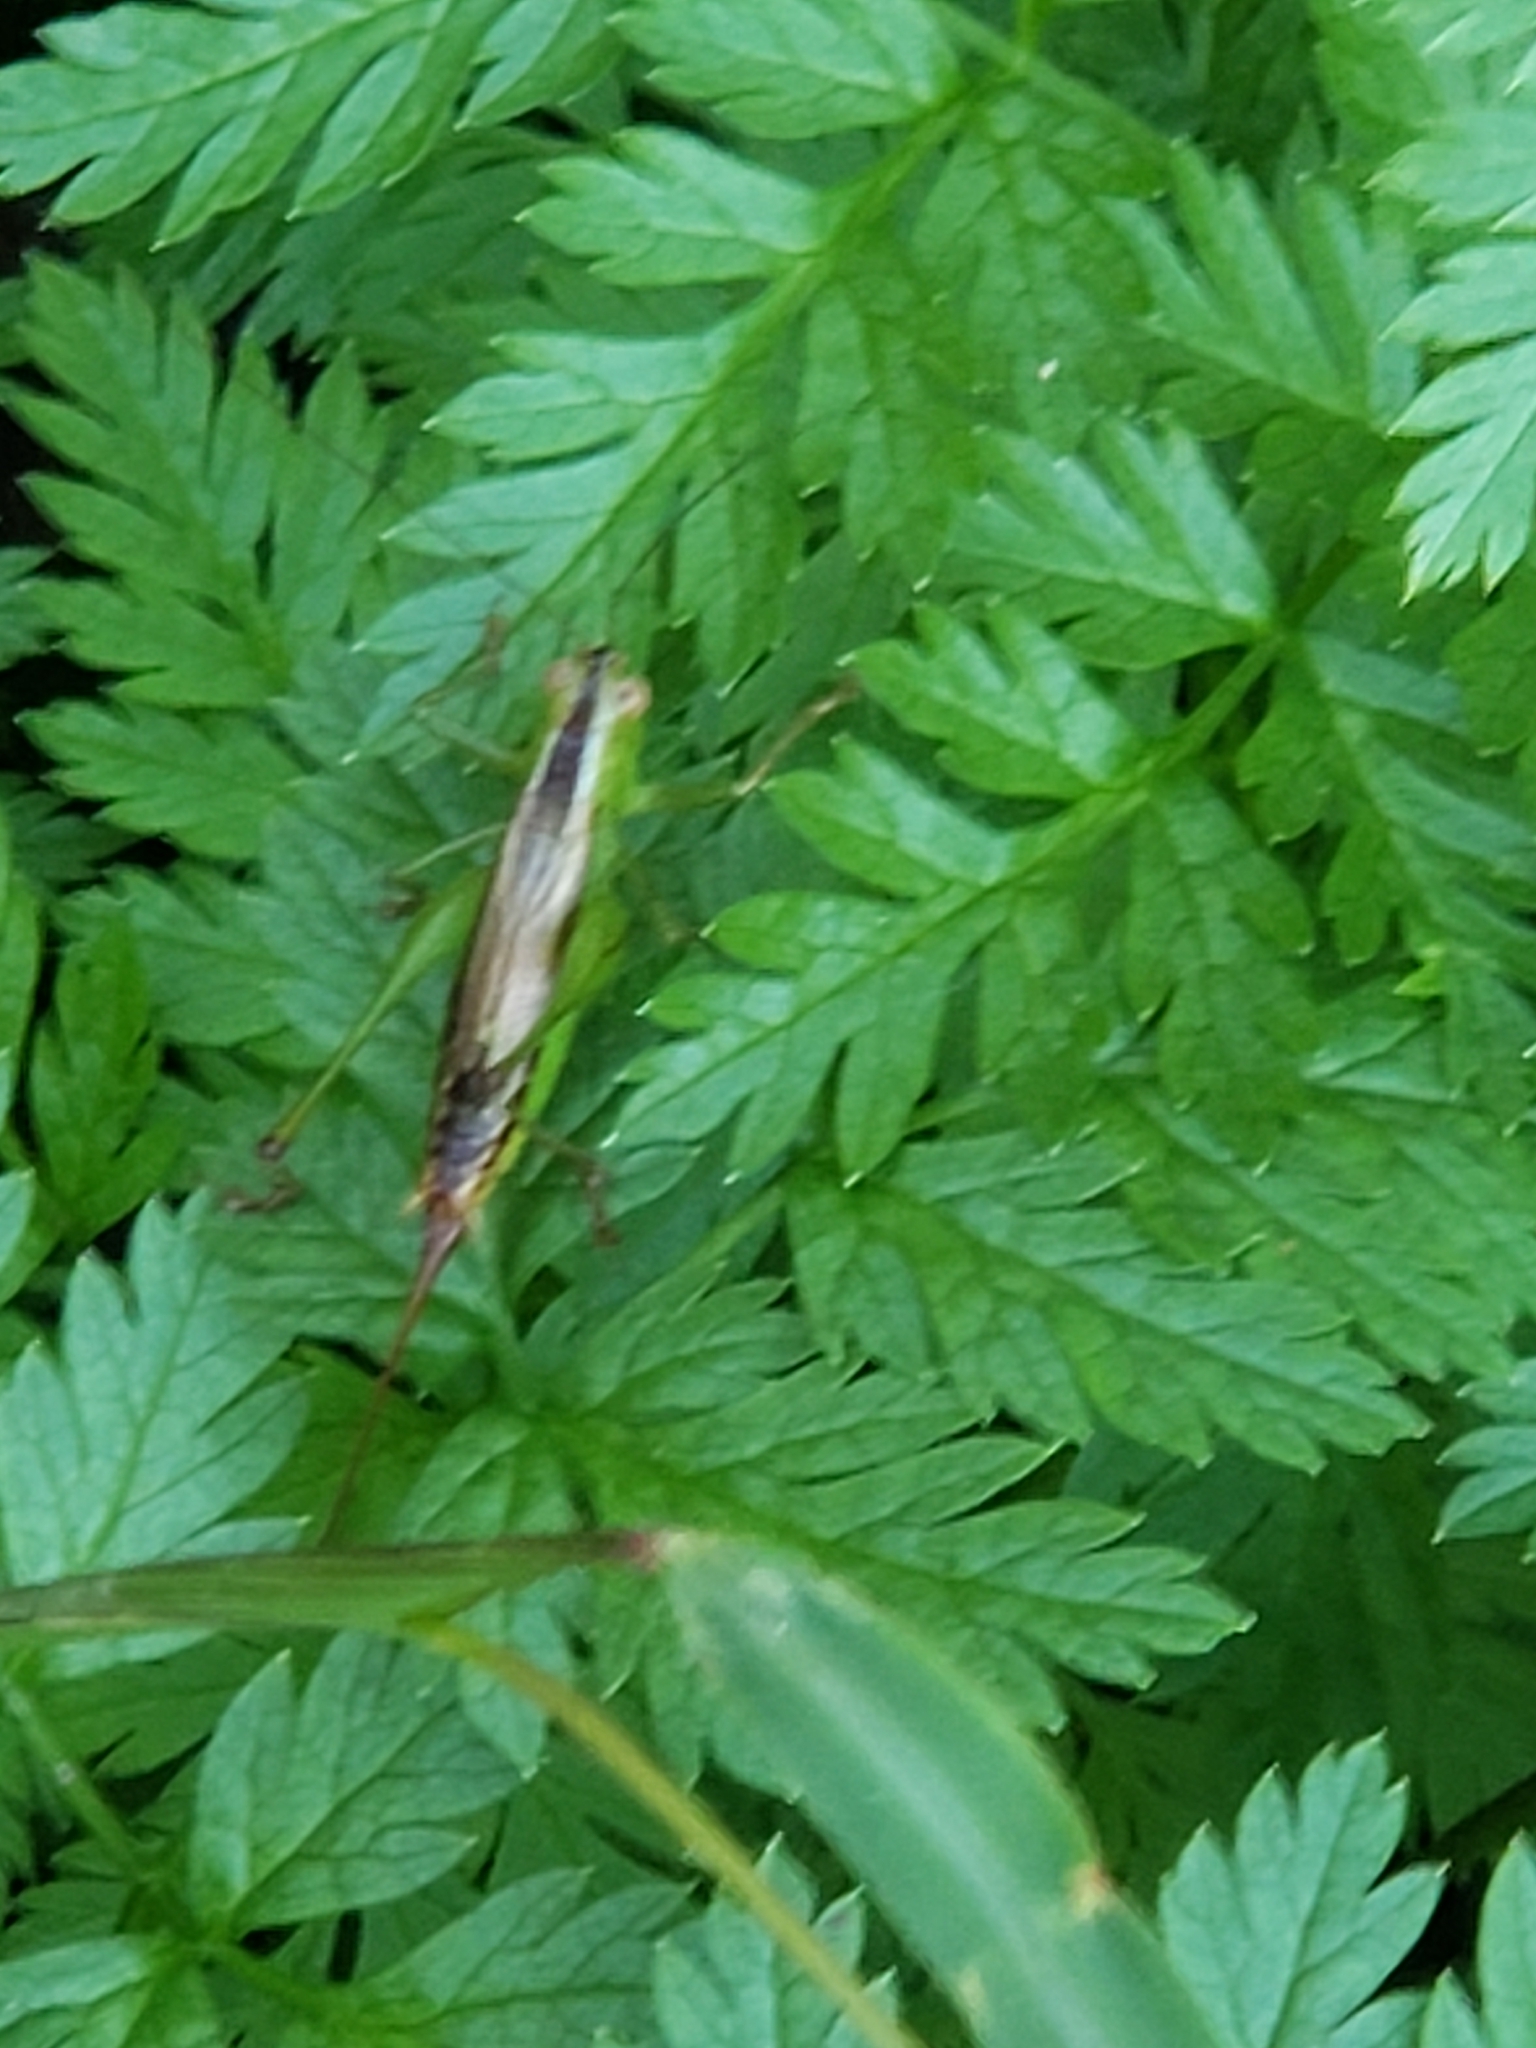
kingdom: Animalia
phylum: Arthropoda
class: Insecta
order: Orthoptera
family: Tettigoniidae
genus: Conocephalus
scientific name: Conocephalus brevipennis
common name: Short-winged meadow katydid
